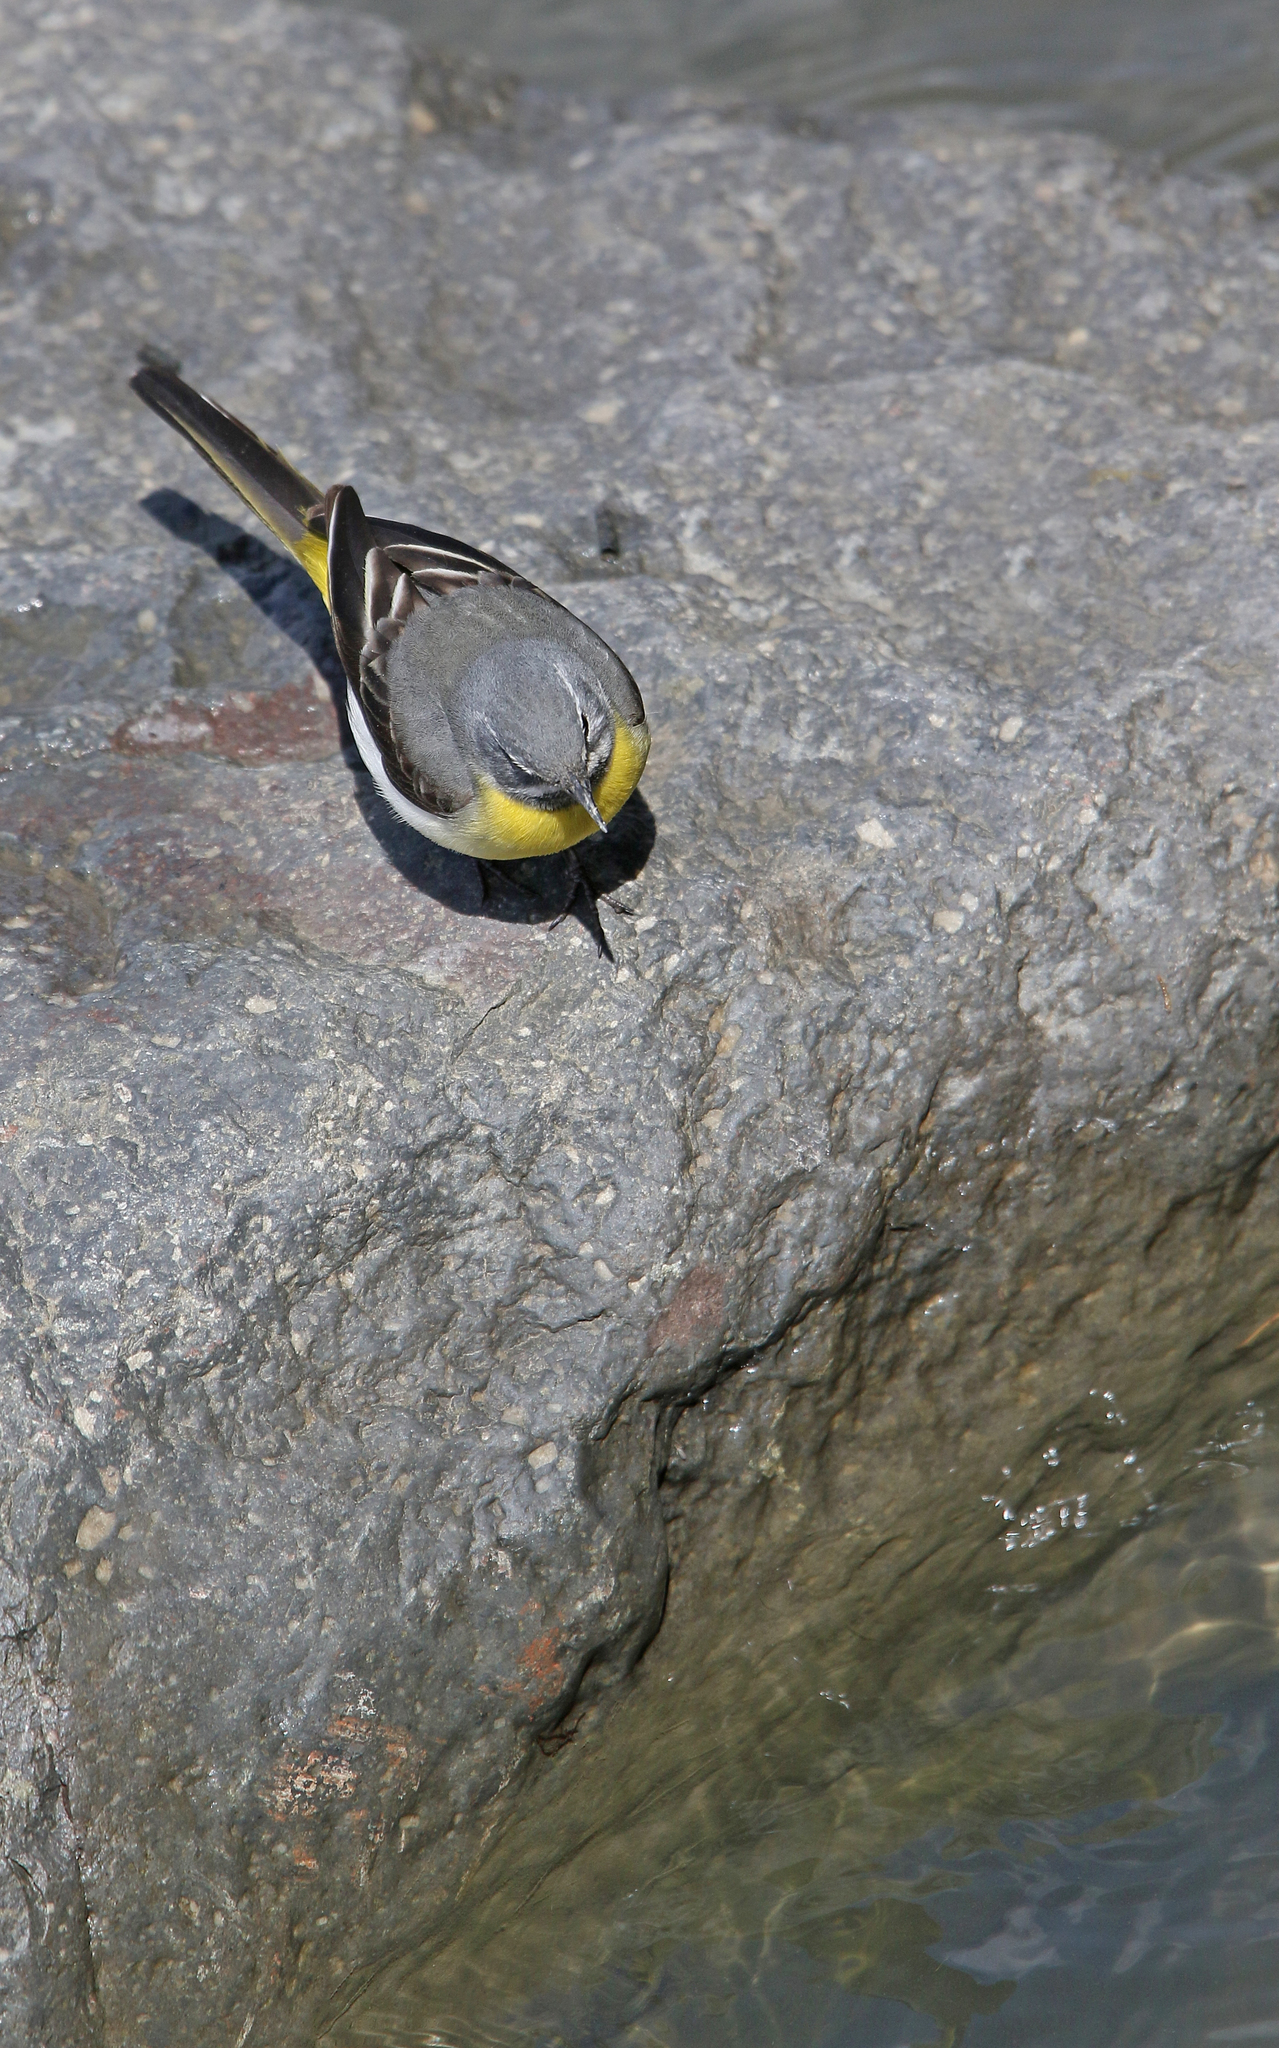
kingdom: Animalia
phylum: Chordata
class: Aves
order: Passeriformes
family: Motacillidae
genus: Motacilla
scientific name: Motacilla cinerea
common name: Grey wagtail
